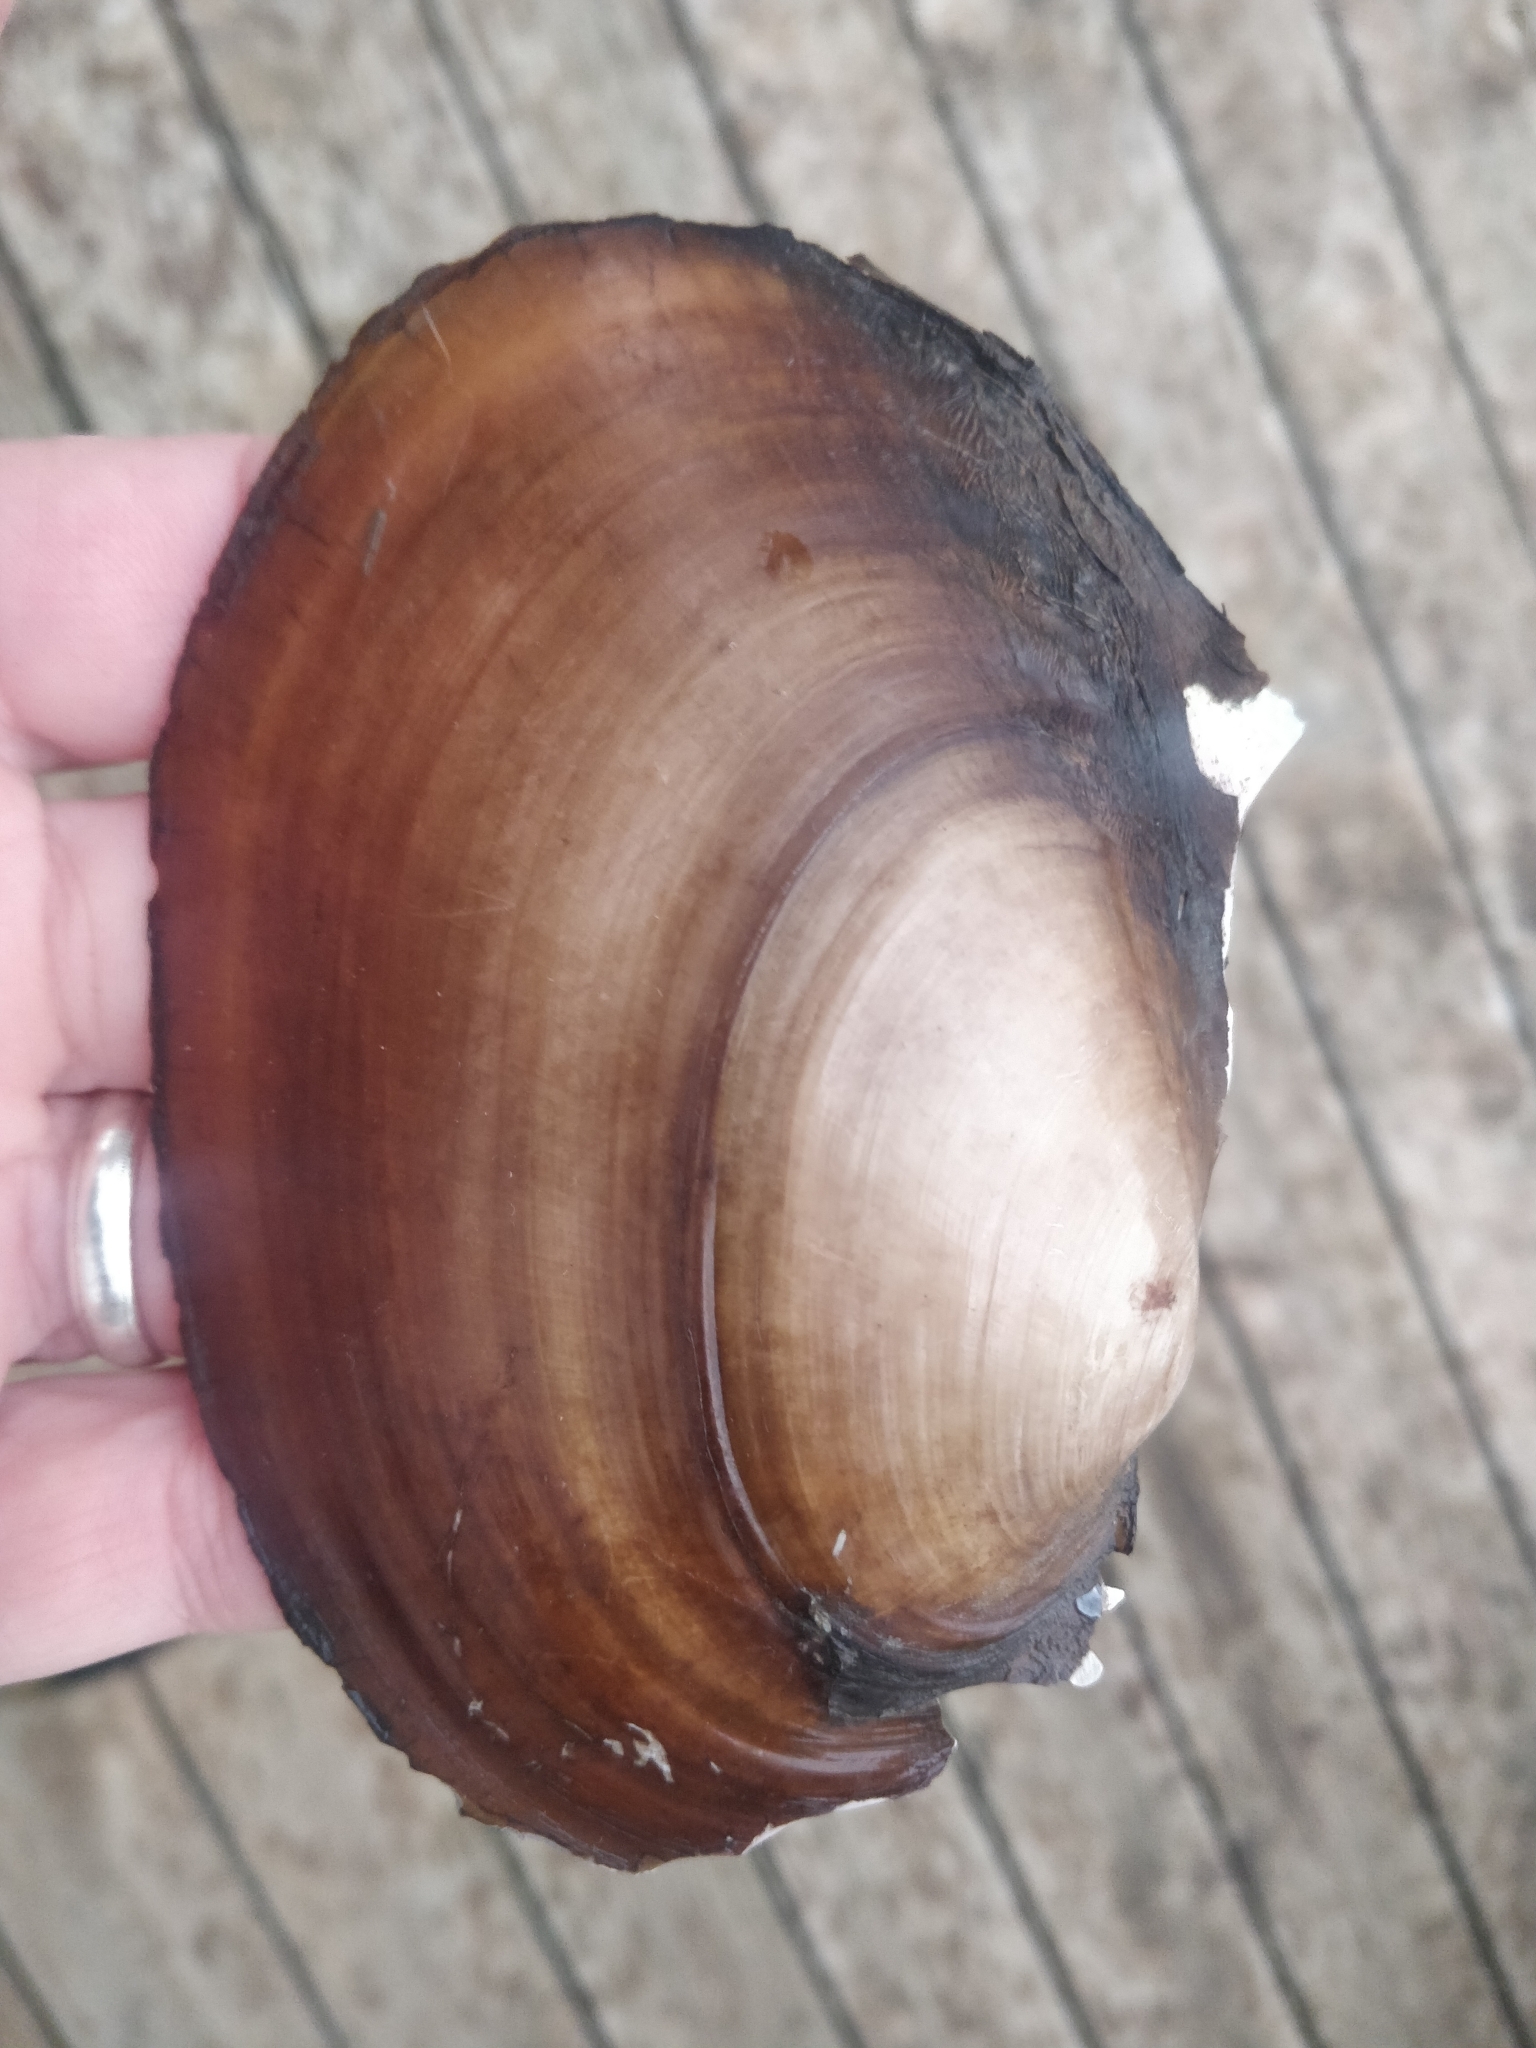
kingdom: Animalia
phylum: Mollusca
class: Bivalvia
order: Unionida
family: Unionidae
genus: Potamilus
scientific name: Potamilus ohiensis
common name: Pink papershell
